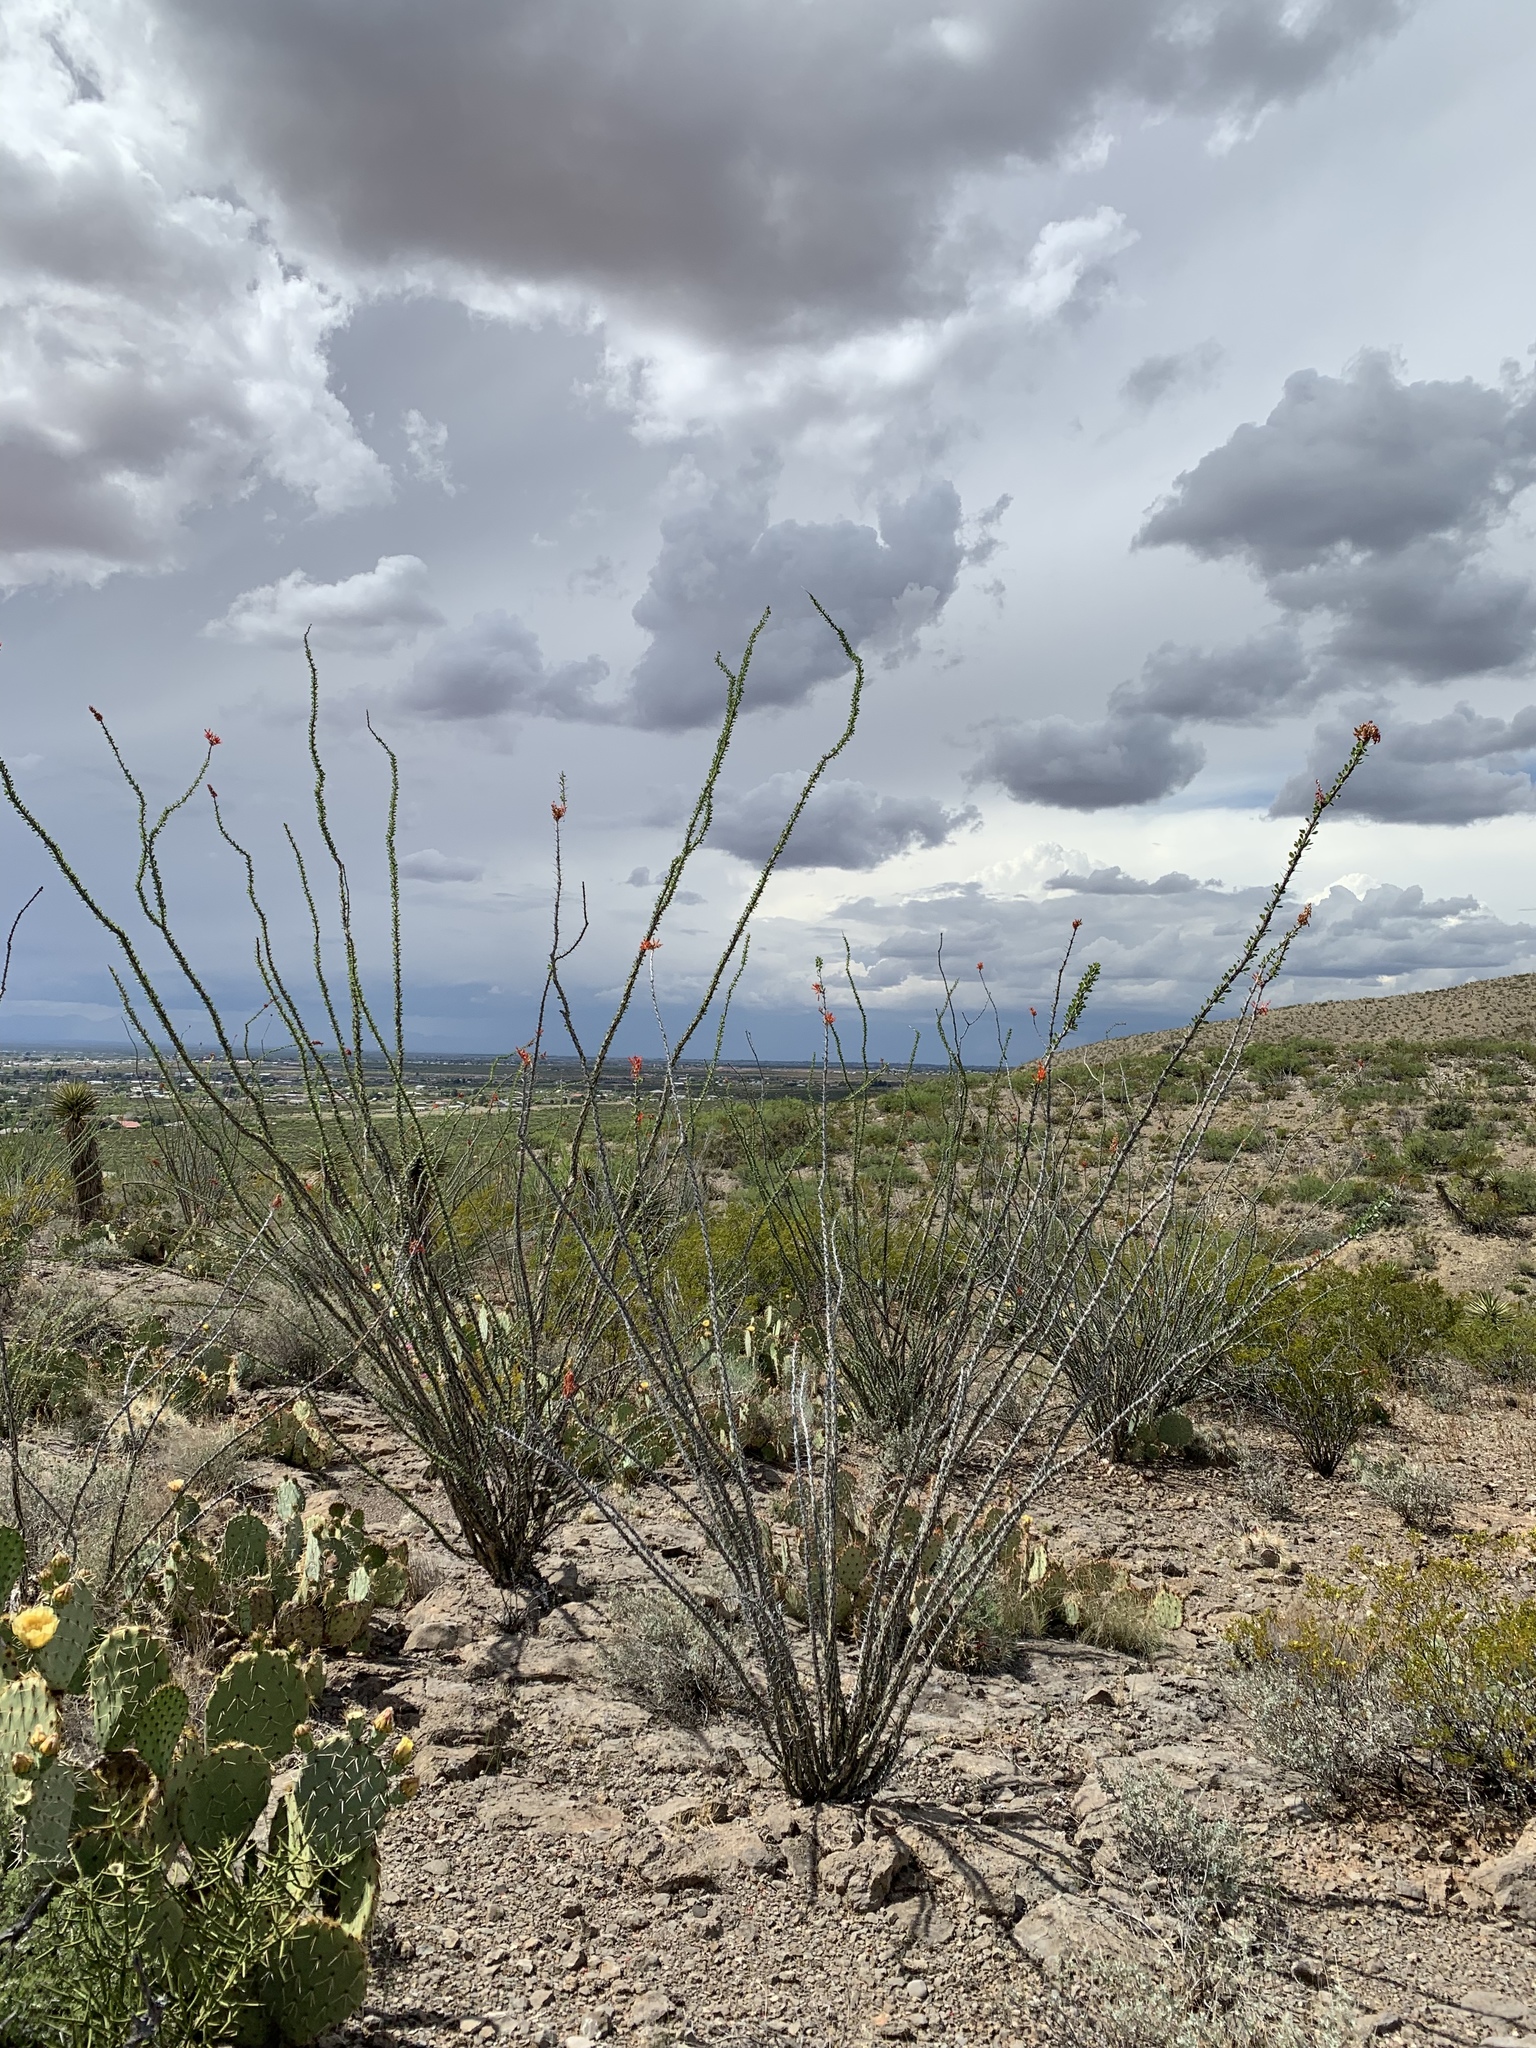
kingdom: Plantae
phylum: Tracheophyta
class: Magnoliopsida
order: Ericales
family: Fouquieriaceae
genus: Fouquieria
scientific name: Fouquieria splendens
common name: Vine-cactus
